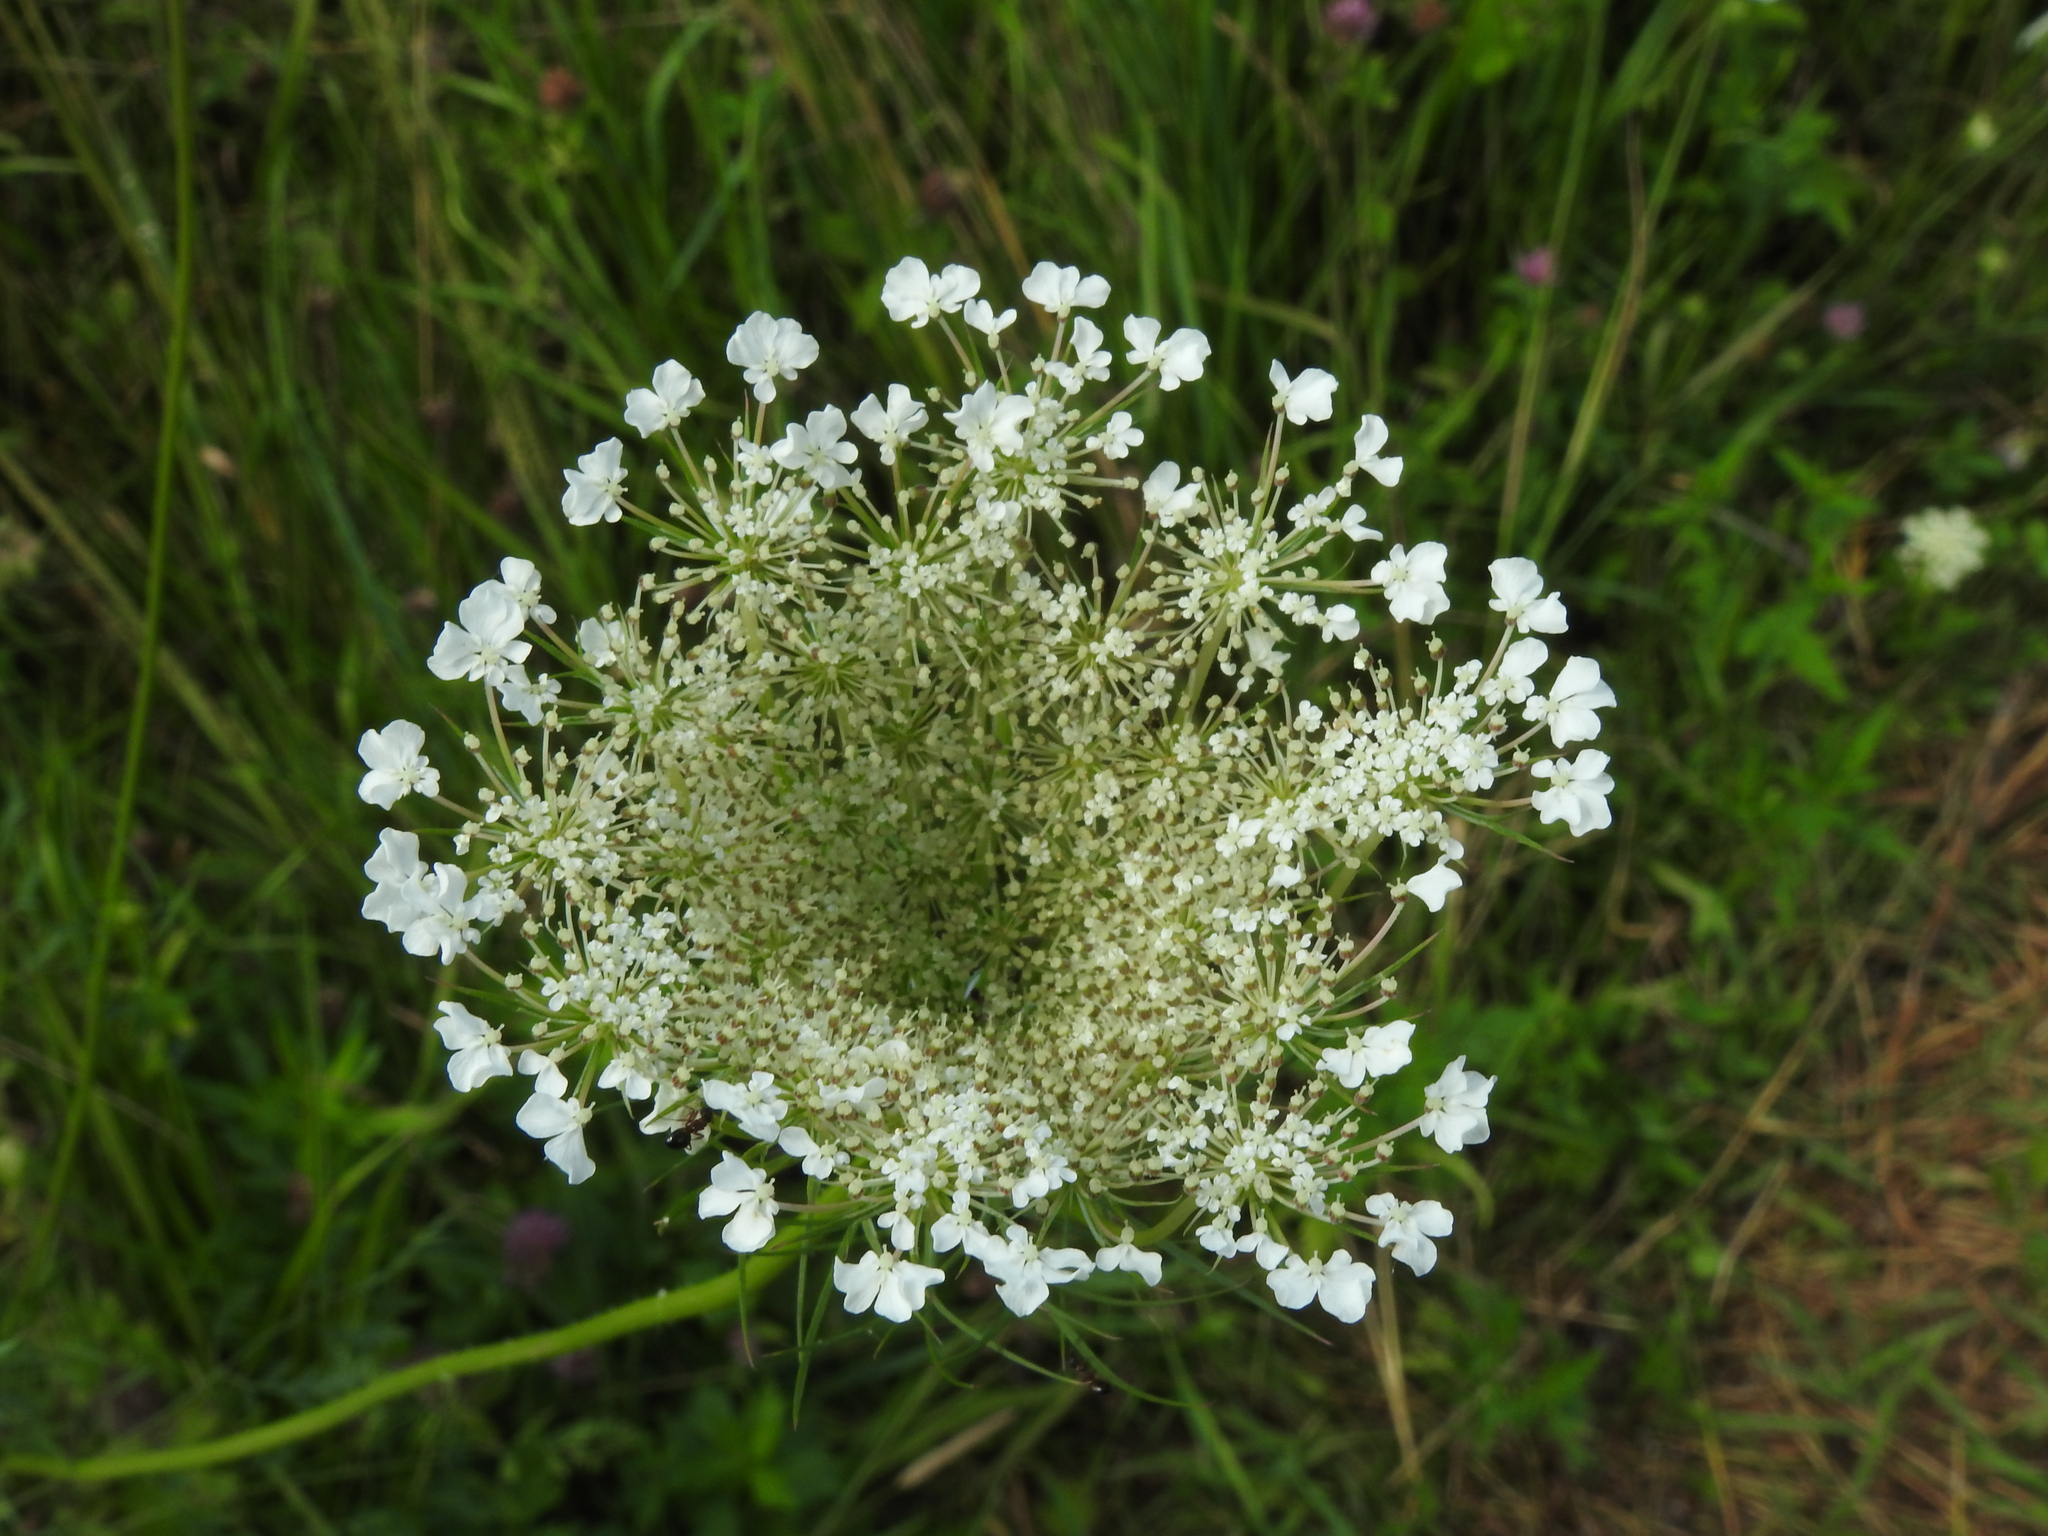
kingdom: Plantae
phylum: Tracheophyta
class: Magnoliopsida
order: Apiales
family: Apiaceae
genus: Daucus
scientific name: Daucus carota
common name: Wild carrot
